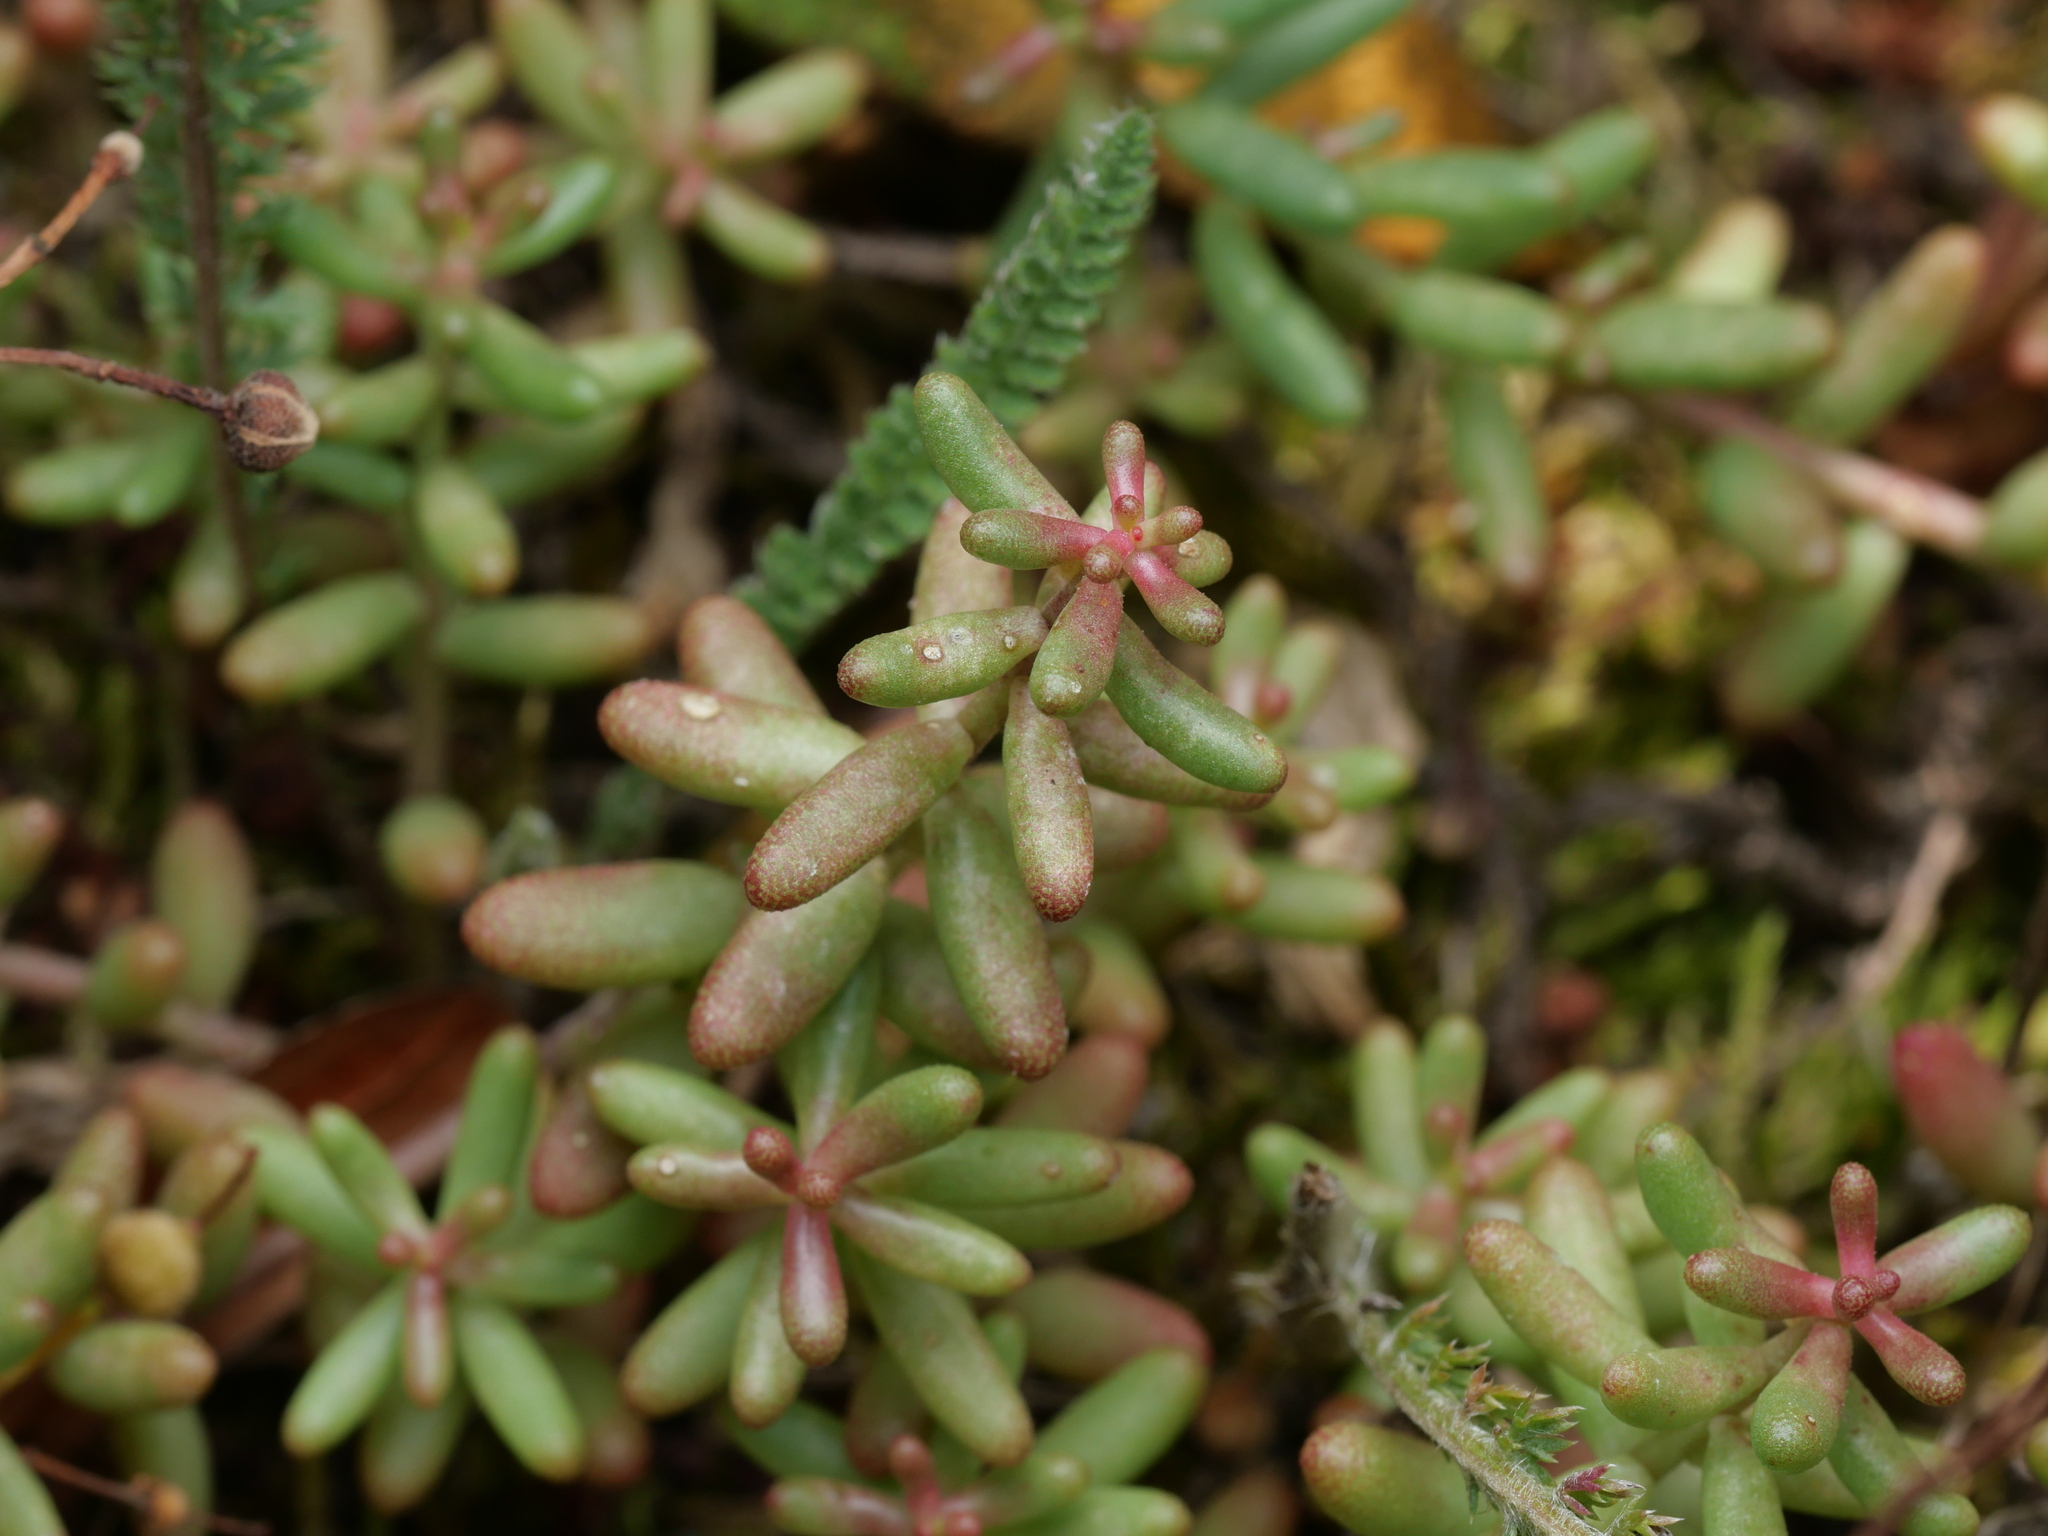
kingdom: Plantae
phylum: Tracheophyta
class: Magnoliopsida
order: Saxifragales
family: Crassulaceae
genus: Sedum
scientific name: Sedum album
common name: White stonecrop
